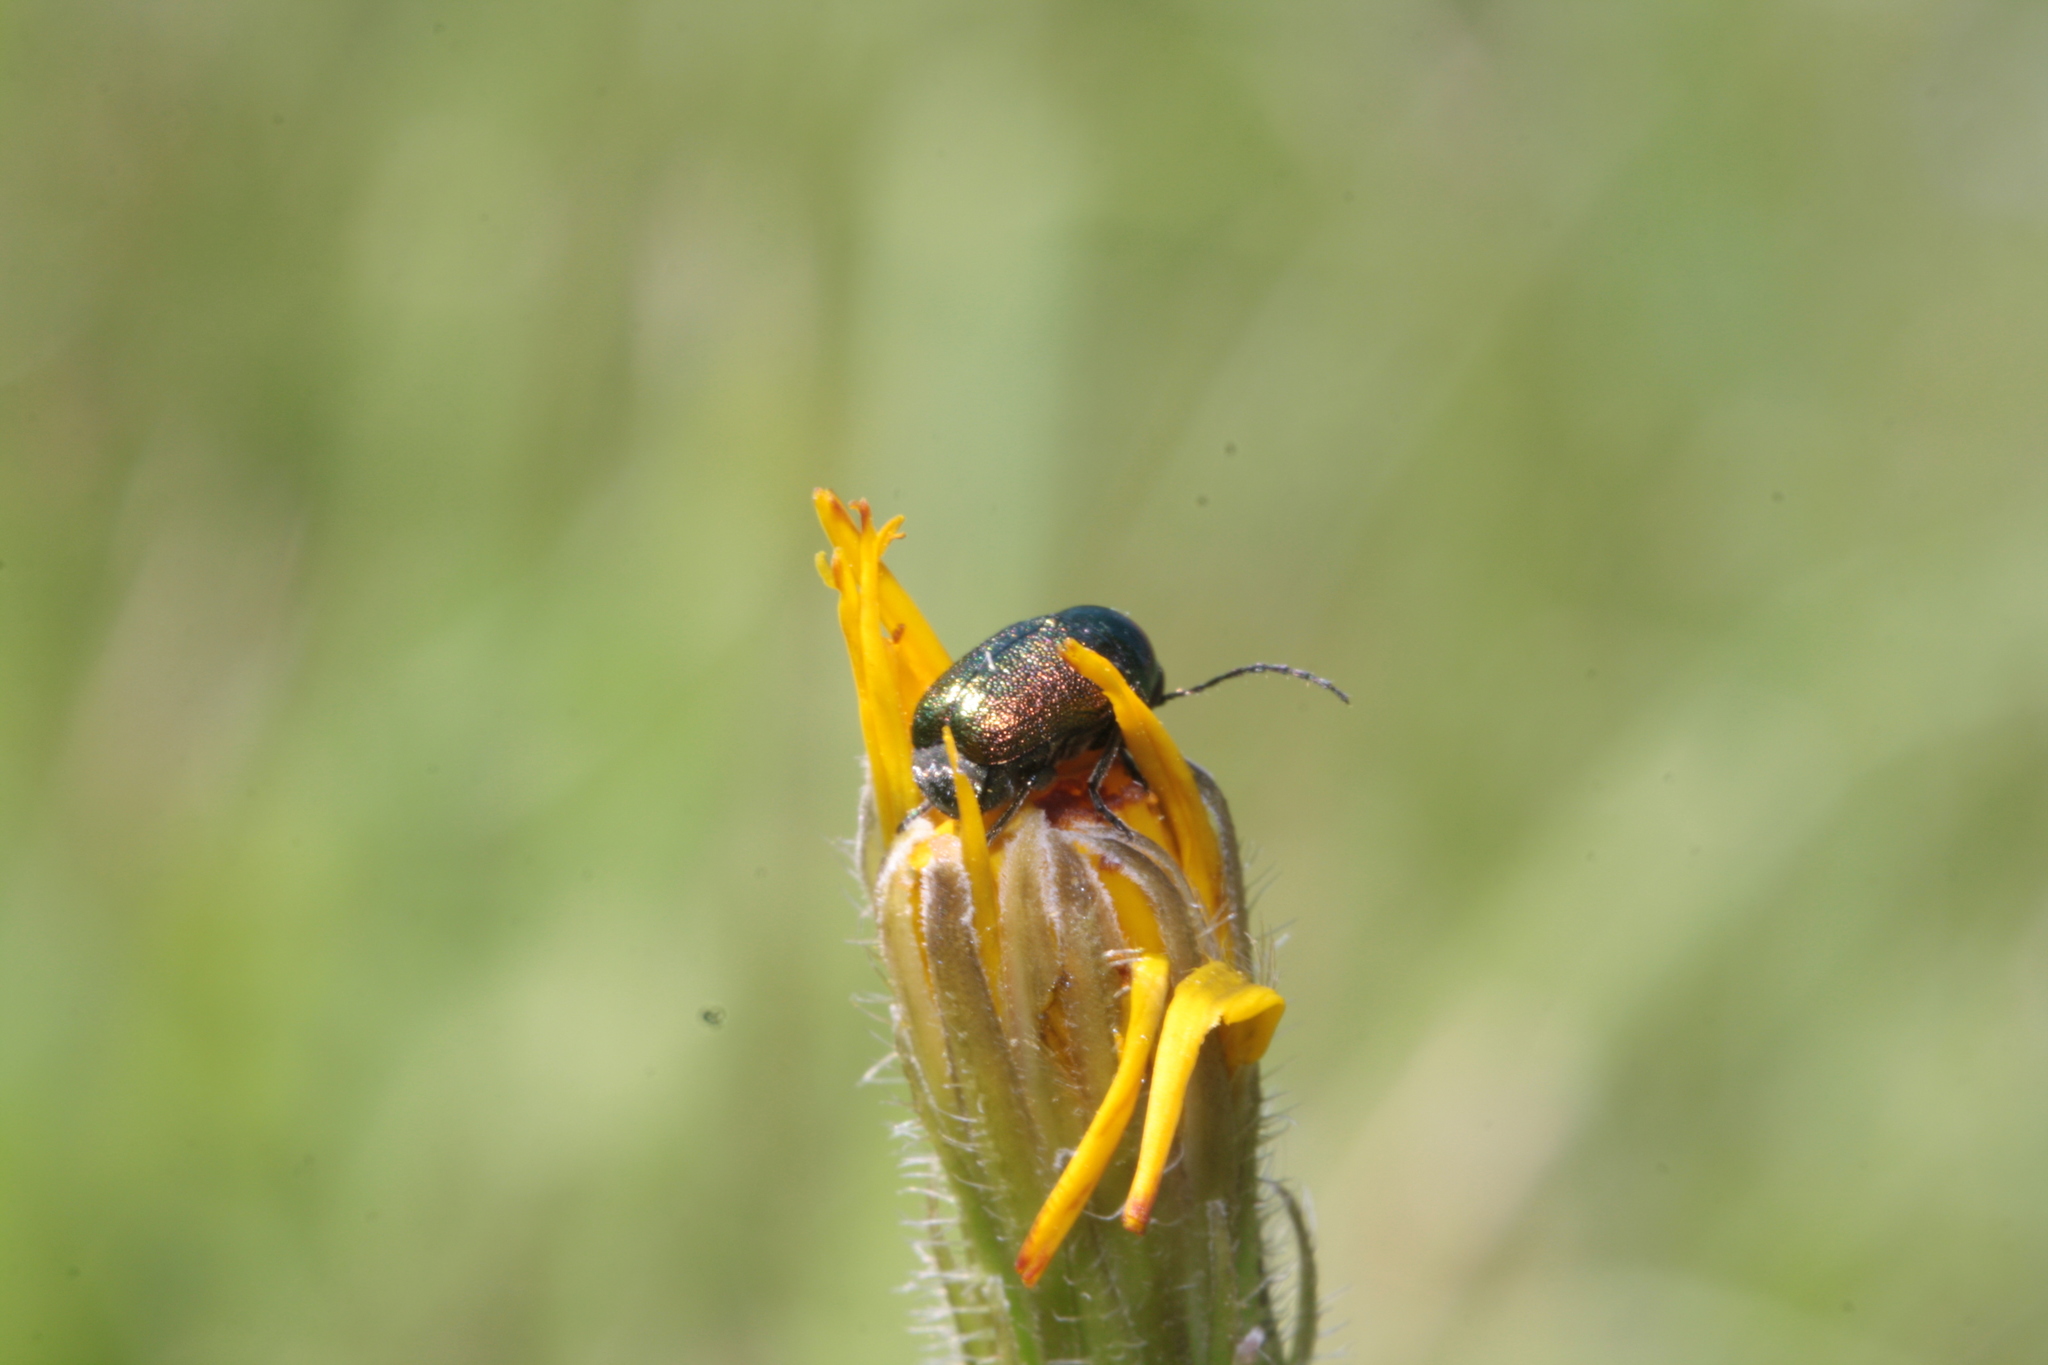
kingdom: Animalia
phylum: Arthropoda
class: Insecta
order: Coleoptera
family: Chrysomelidae
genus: Cryptocephalus
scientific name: Cryptocephalus
